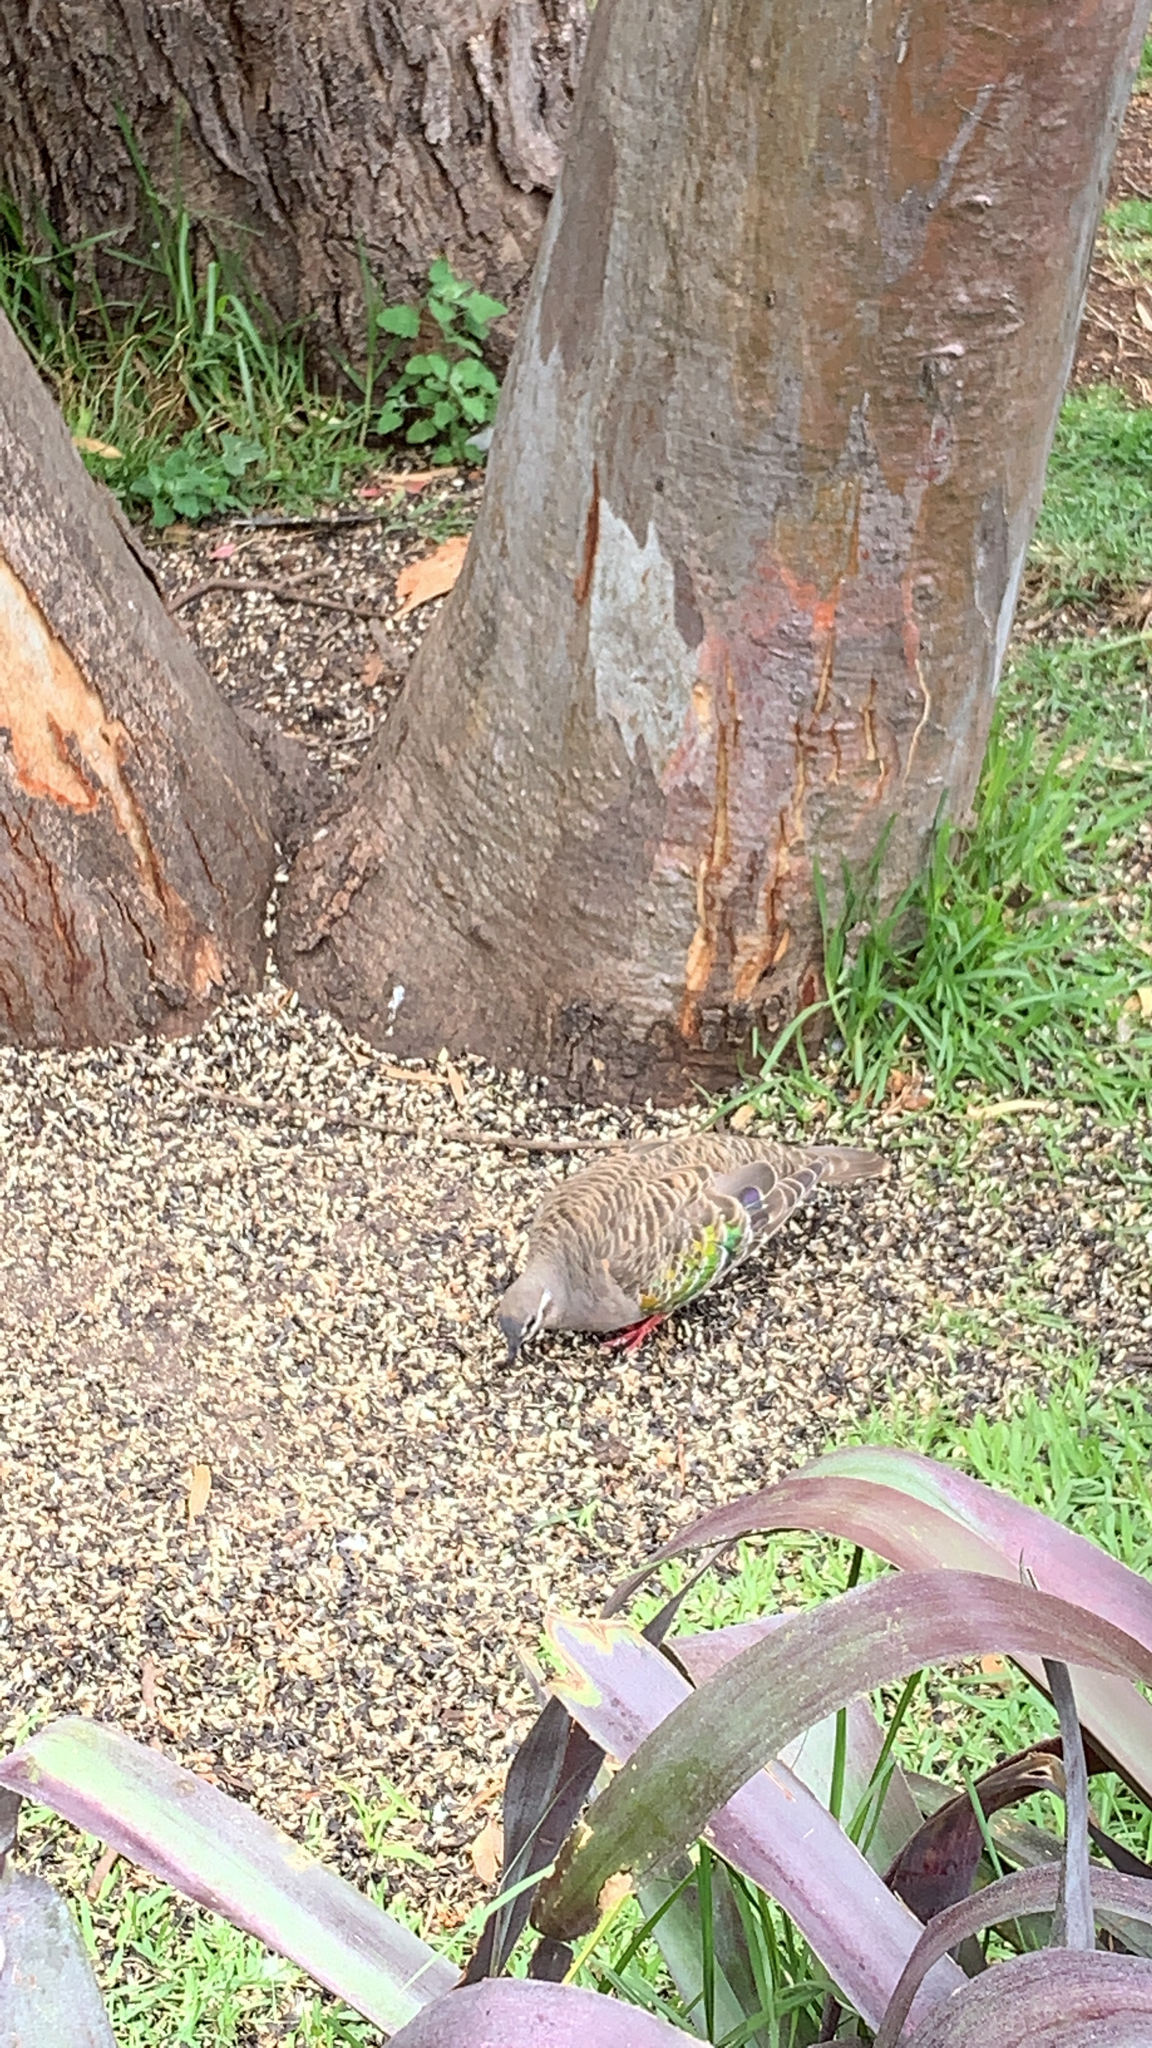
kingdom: Animalia
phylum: Chordata
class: Aves
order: Columbiformes
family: Columbidae
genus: Phaps
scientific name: Phaps chalcoptera
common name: Common bronzewing
